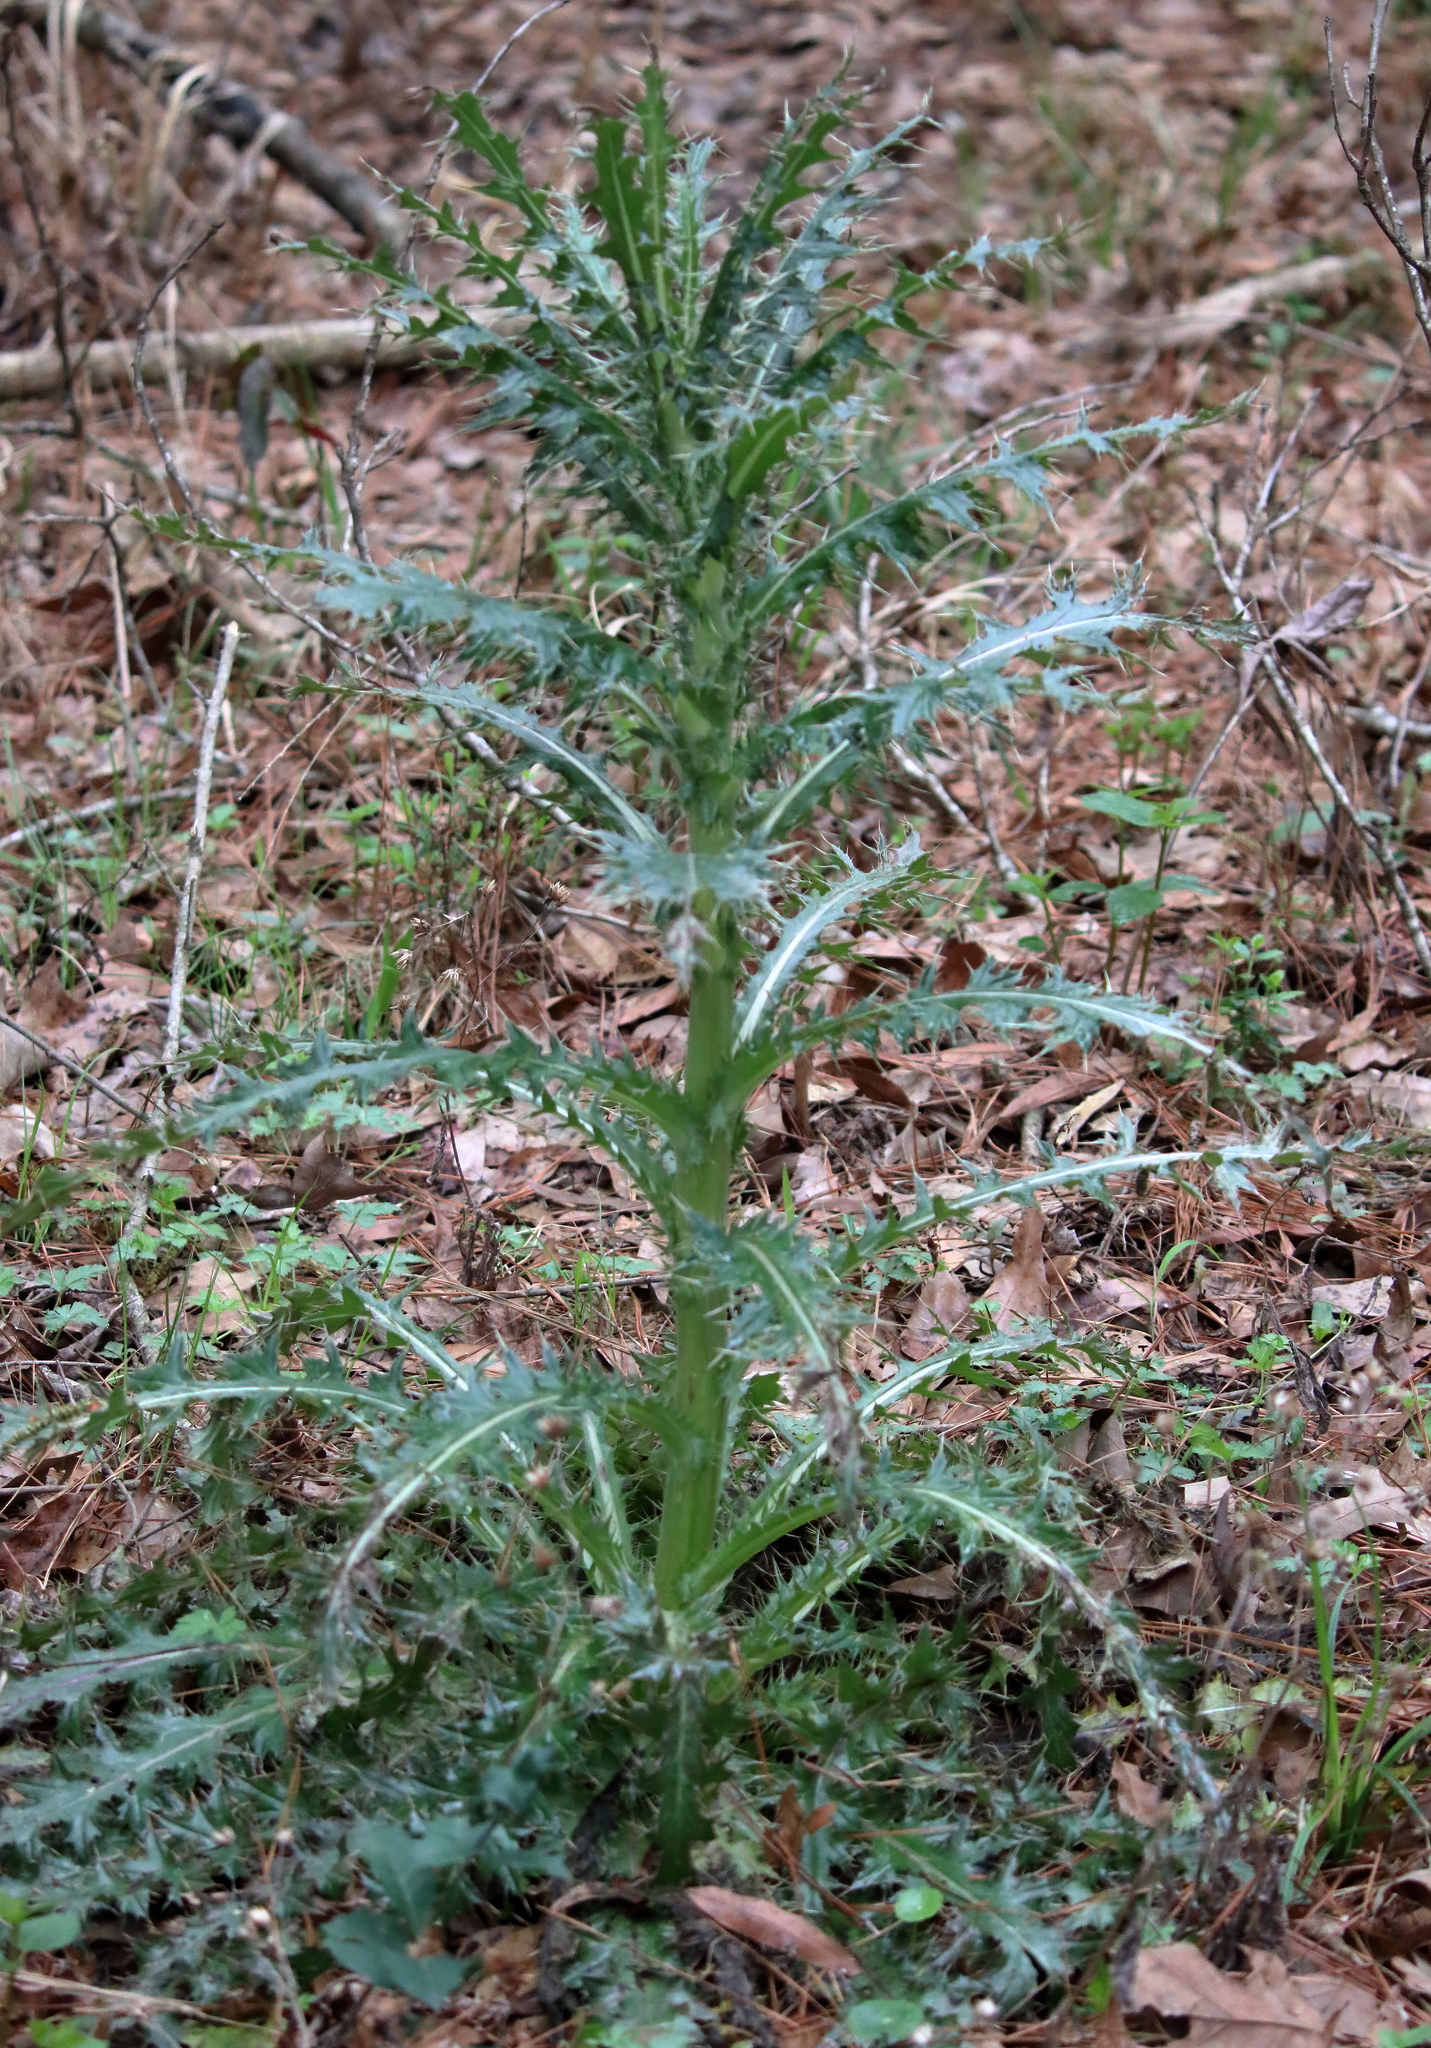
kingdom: Plantae
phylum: Tracheophyta
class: Magnoliopsida
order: Asterales
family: Asteraceae
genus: Cirsium
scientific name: Cirsium horridulum
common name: Bristly thistle
